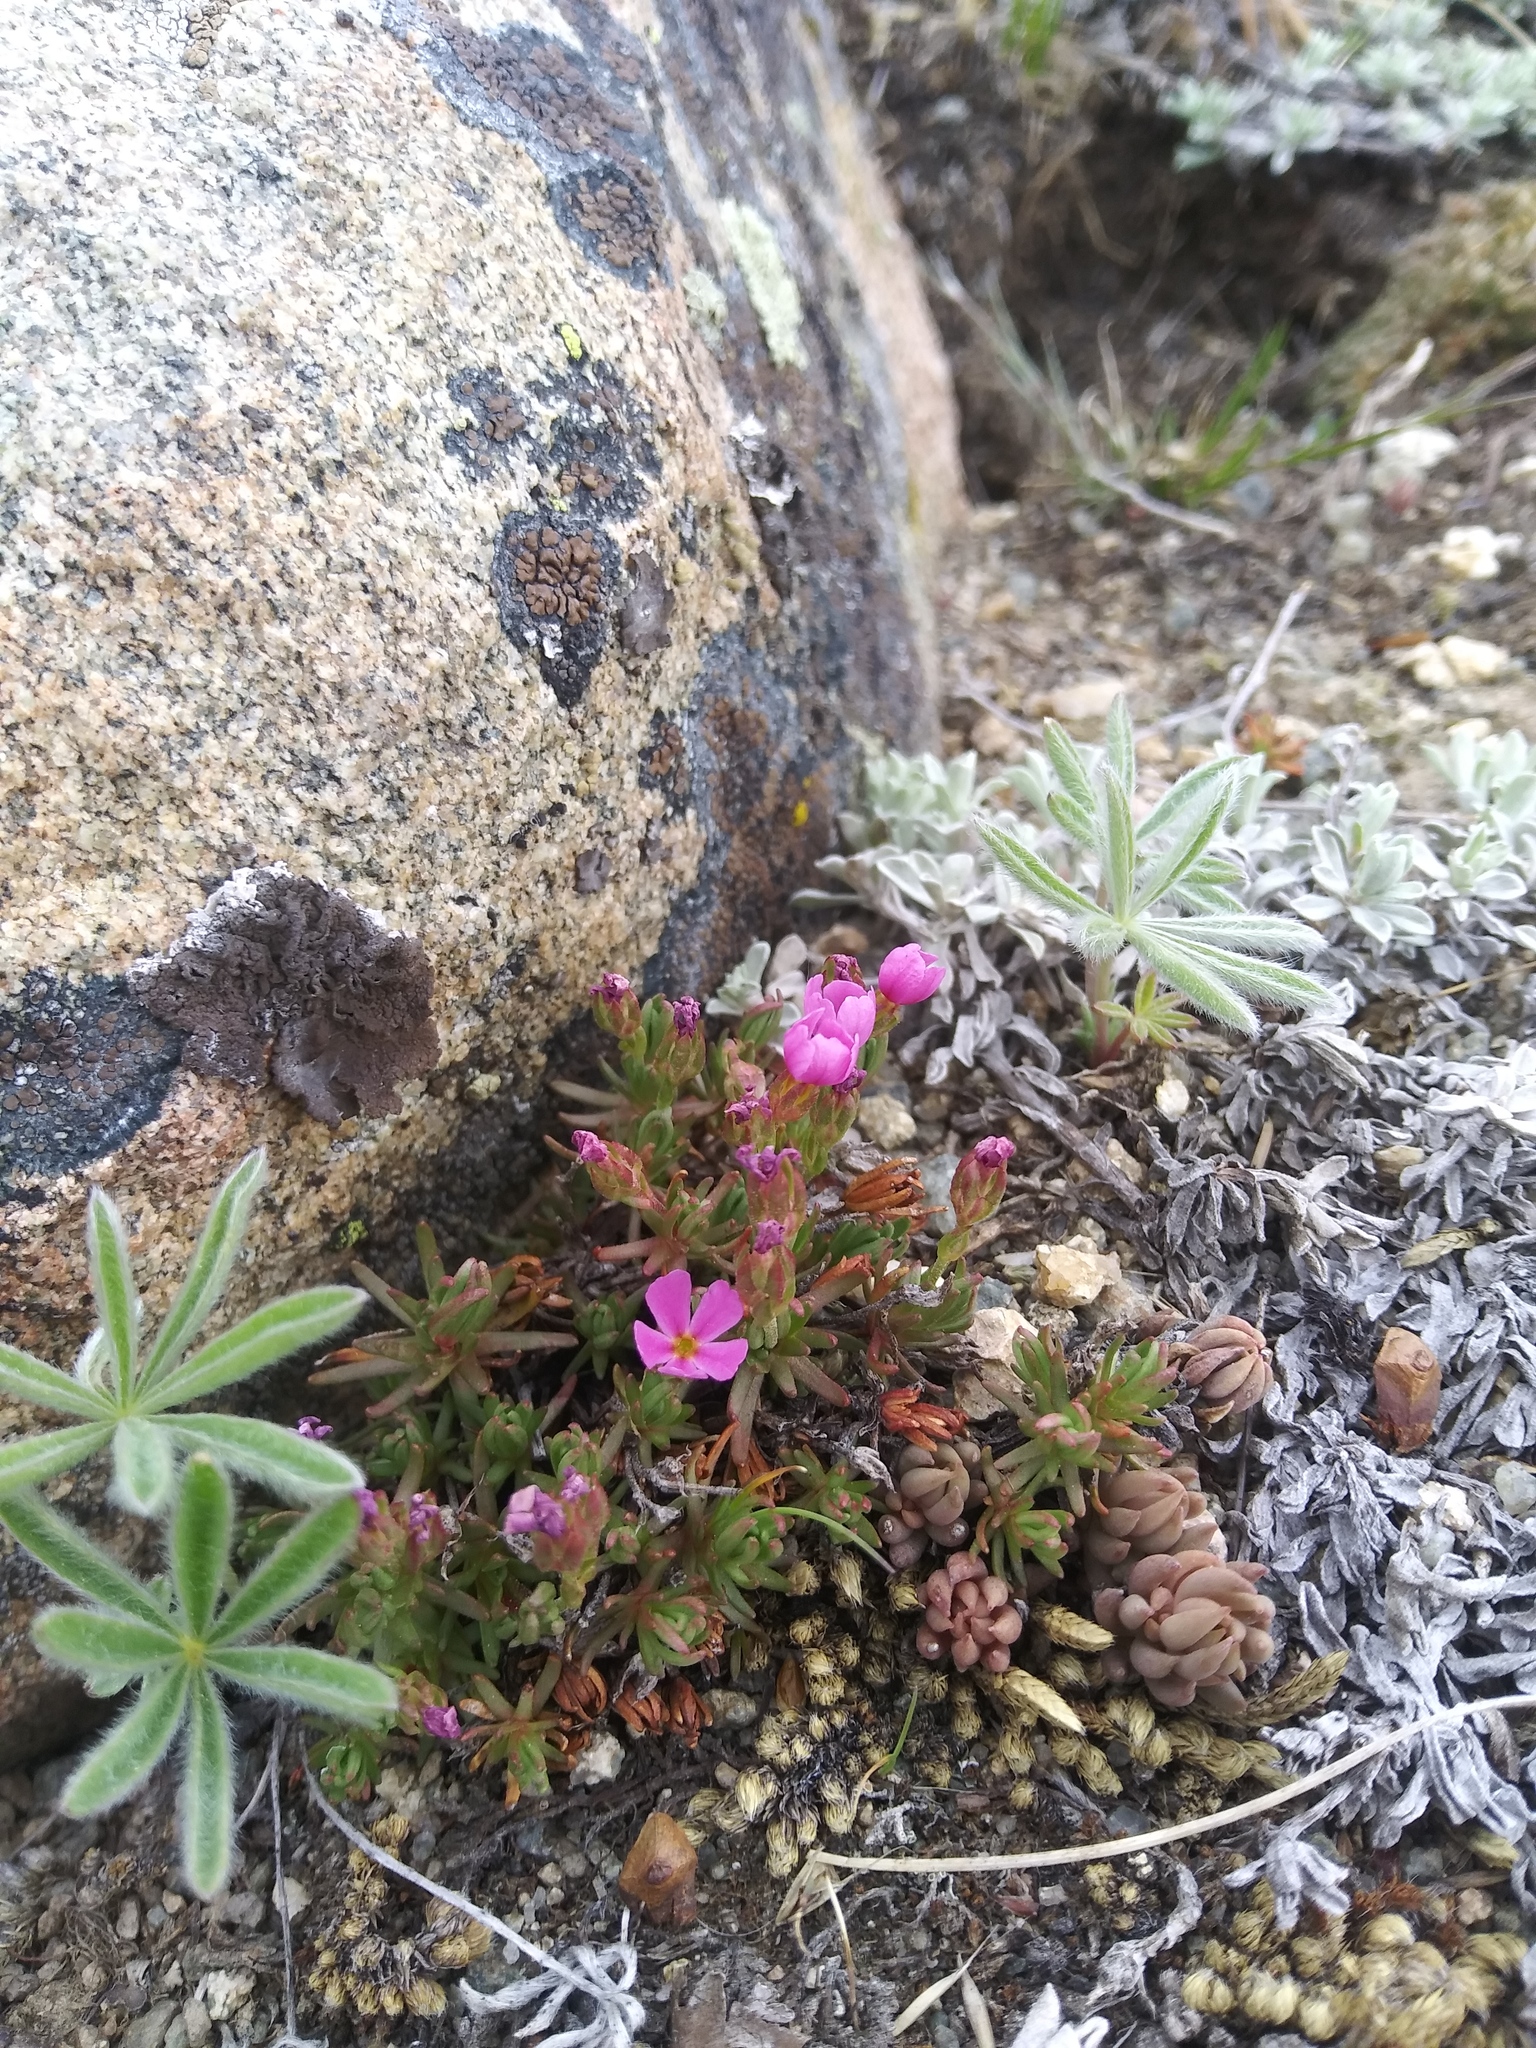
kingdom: Plantae
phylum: Tracheophyta
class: Magnoliopsida
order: Ericales
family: Primulaceae
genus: Androsace
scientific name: Androsace montana
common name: Rocky mountain dwarf-primrose
